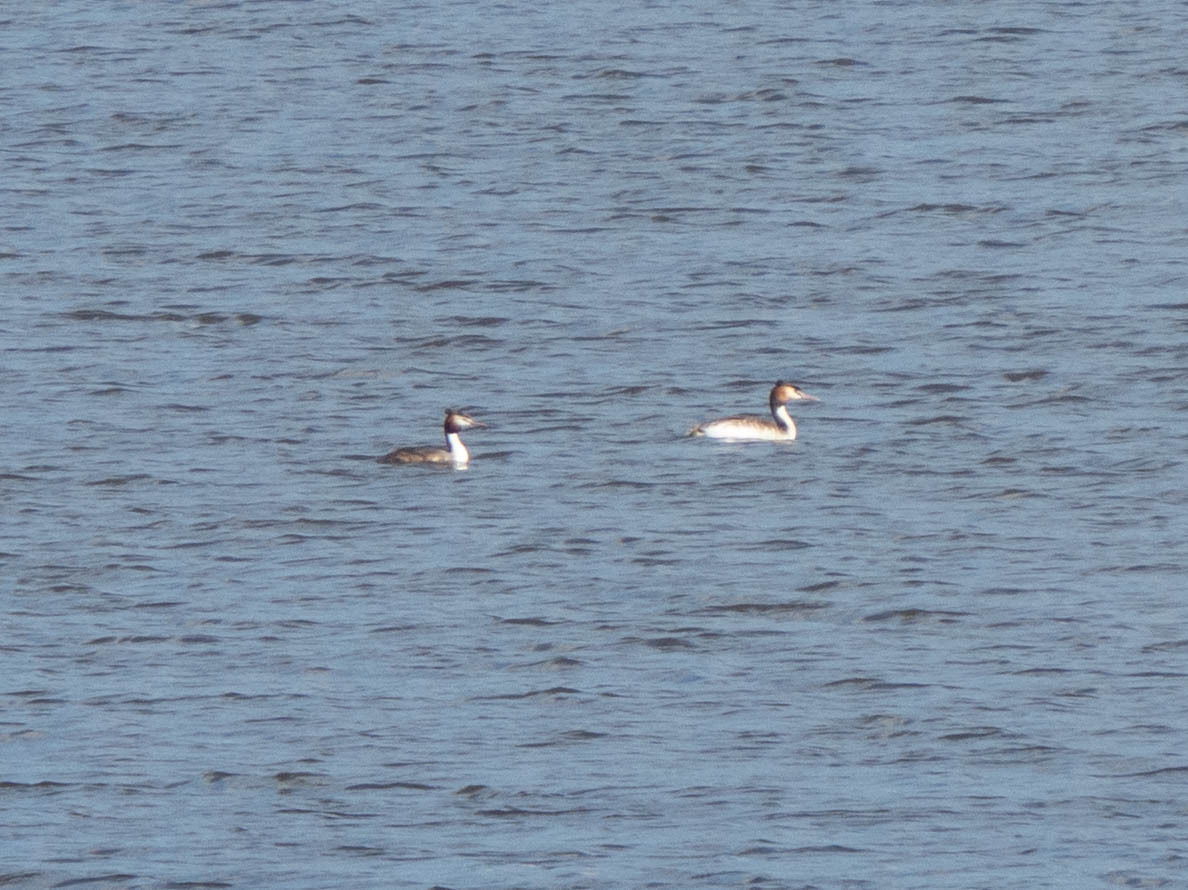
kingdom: Animalia
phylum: Chordata
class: Aves
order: Podicipediformes
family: Podicipedidae
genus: Podiceps
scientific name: Podiceps cristatus
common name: Great crested grebe
